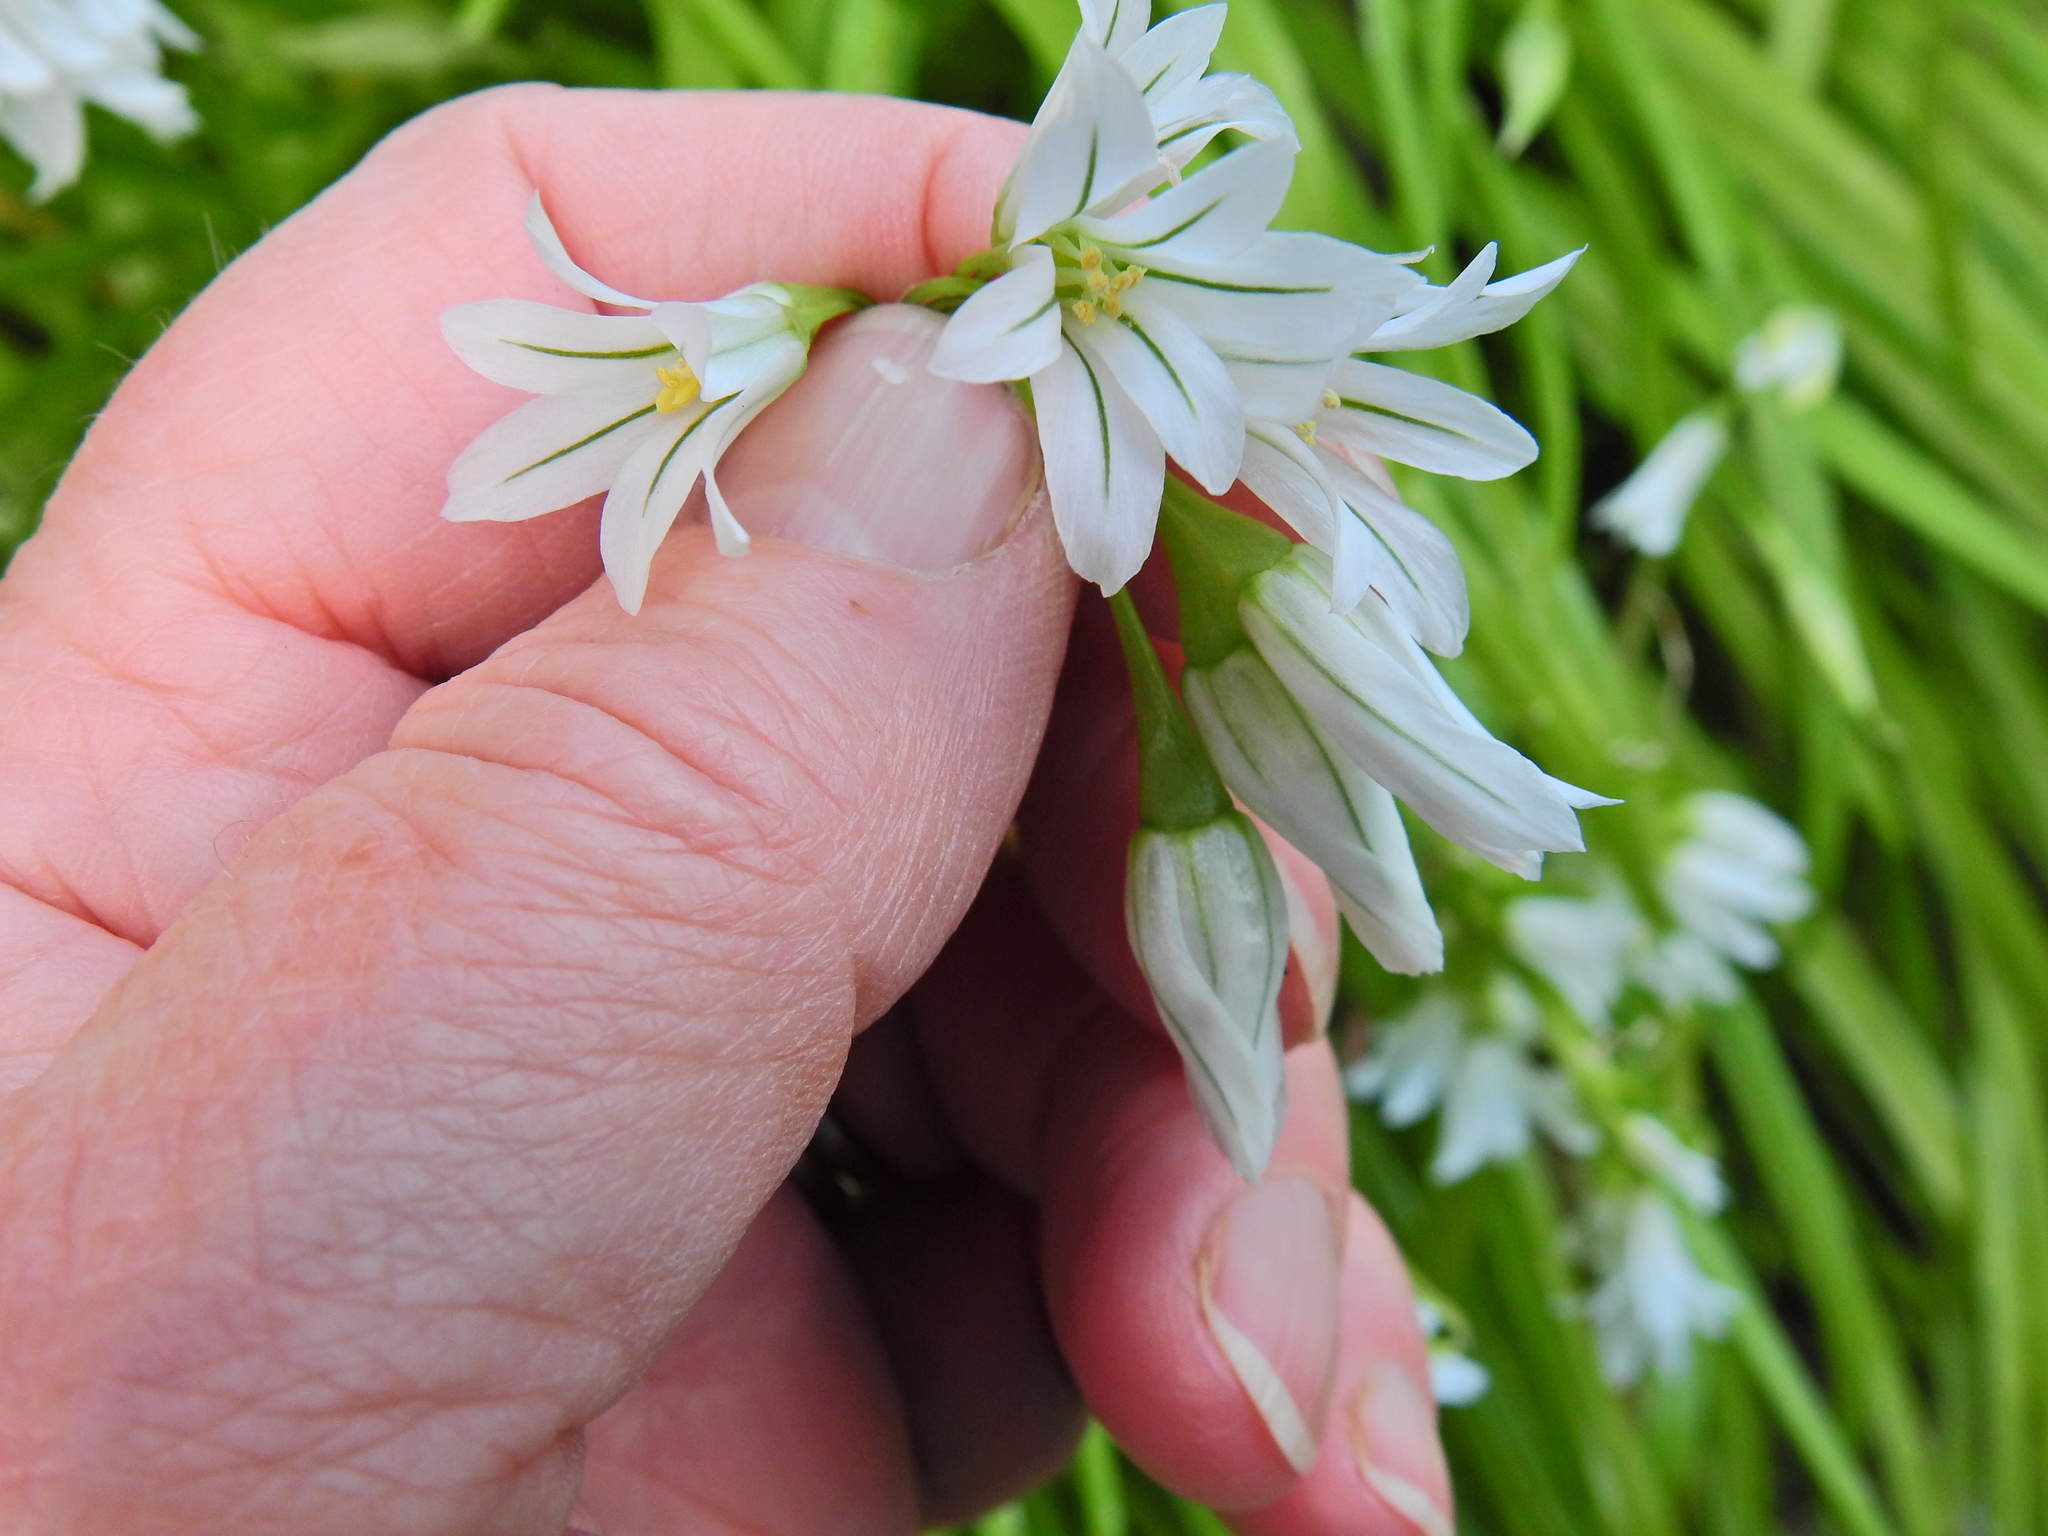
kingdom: Plantae
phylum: Tracheophyta
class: Liliopsida
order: Asparagales
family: Amaryllidaceae
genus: Allium
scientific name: Allium triquetrum
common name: Three-cornered garlic
